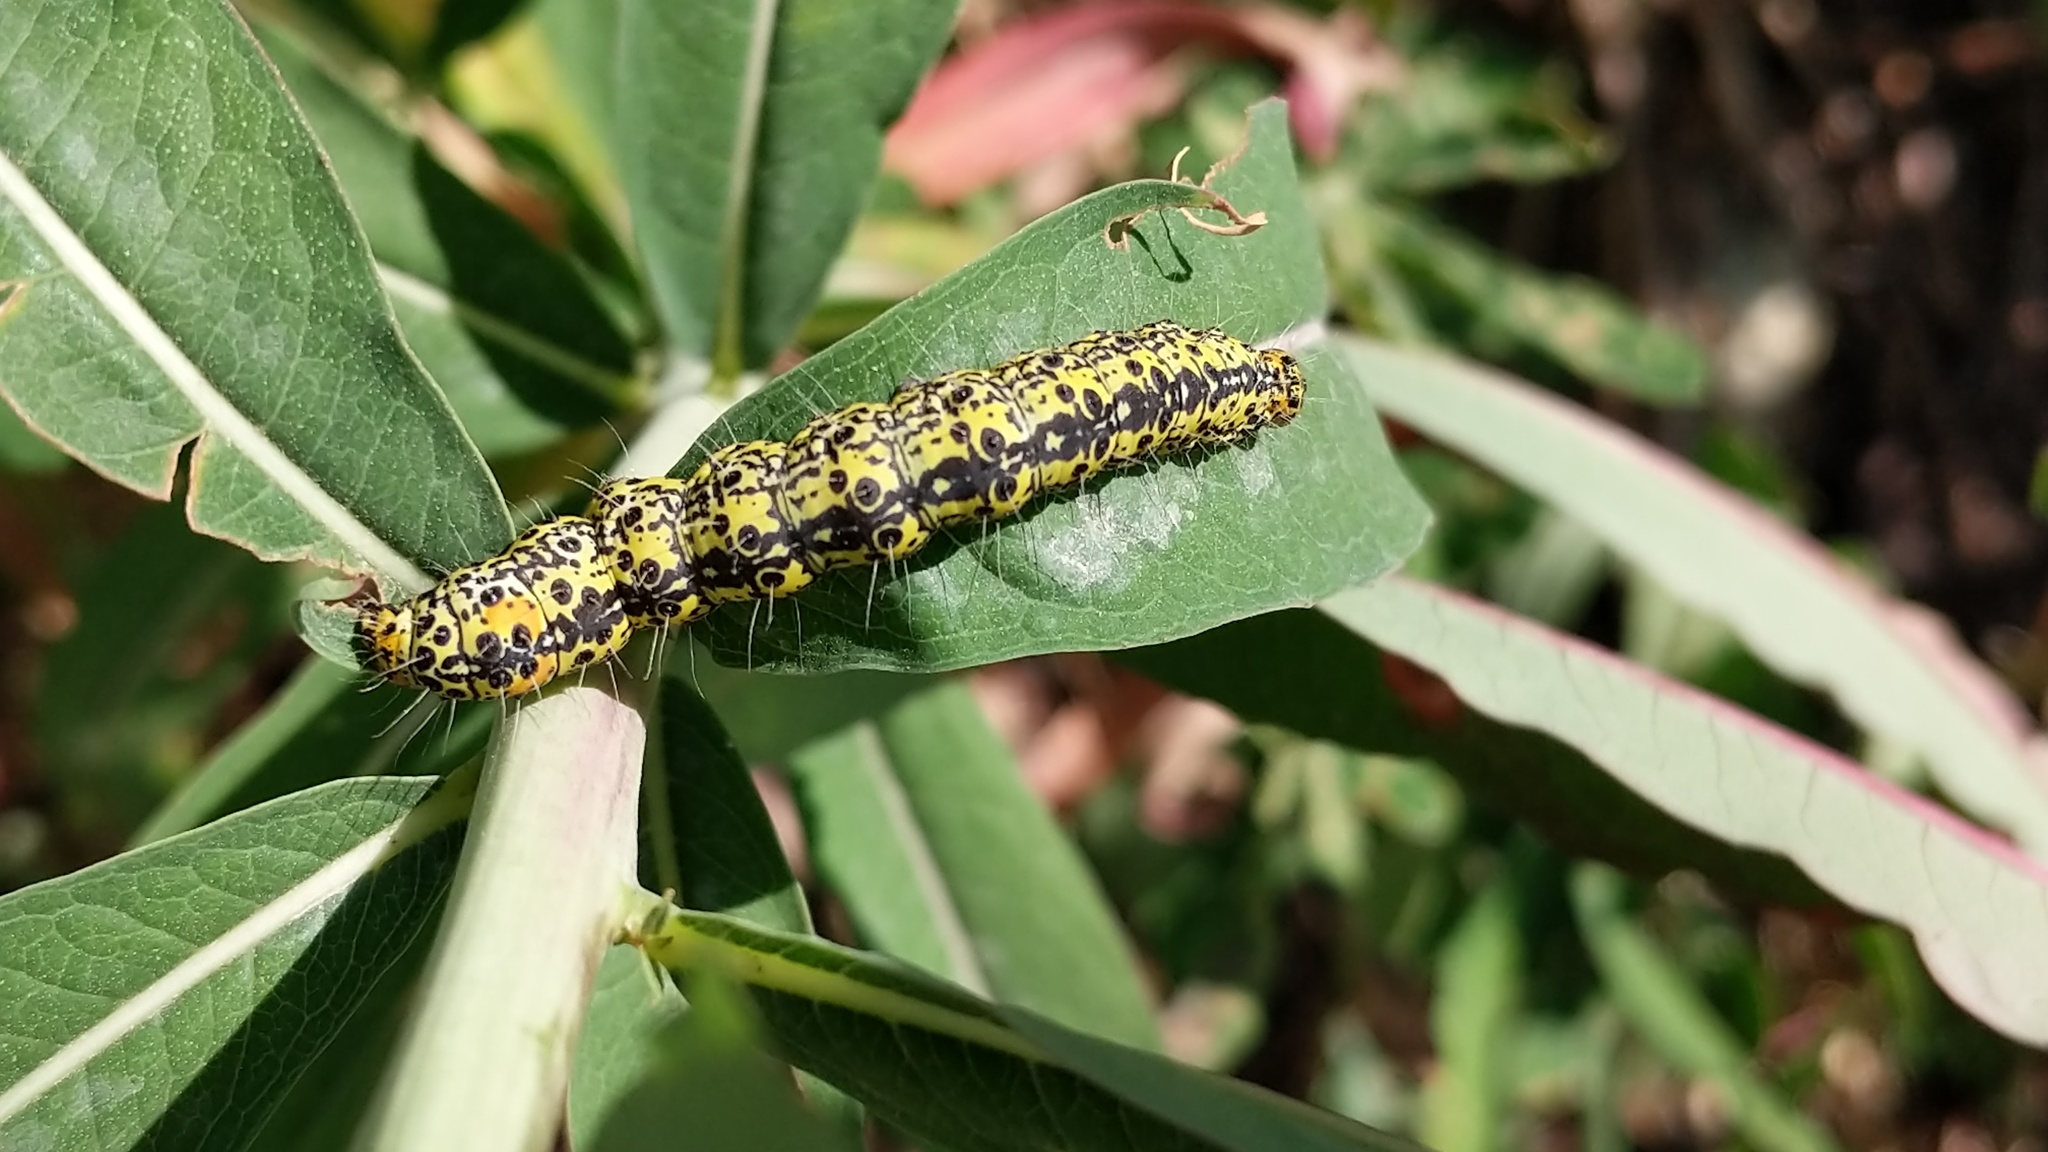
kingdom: Animalia
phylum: Arthropoda
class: Insecta
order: Lepidoptera
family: Noctuidae
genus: Alypia
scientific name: Alypia maccullochii
